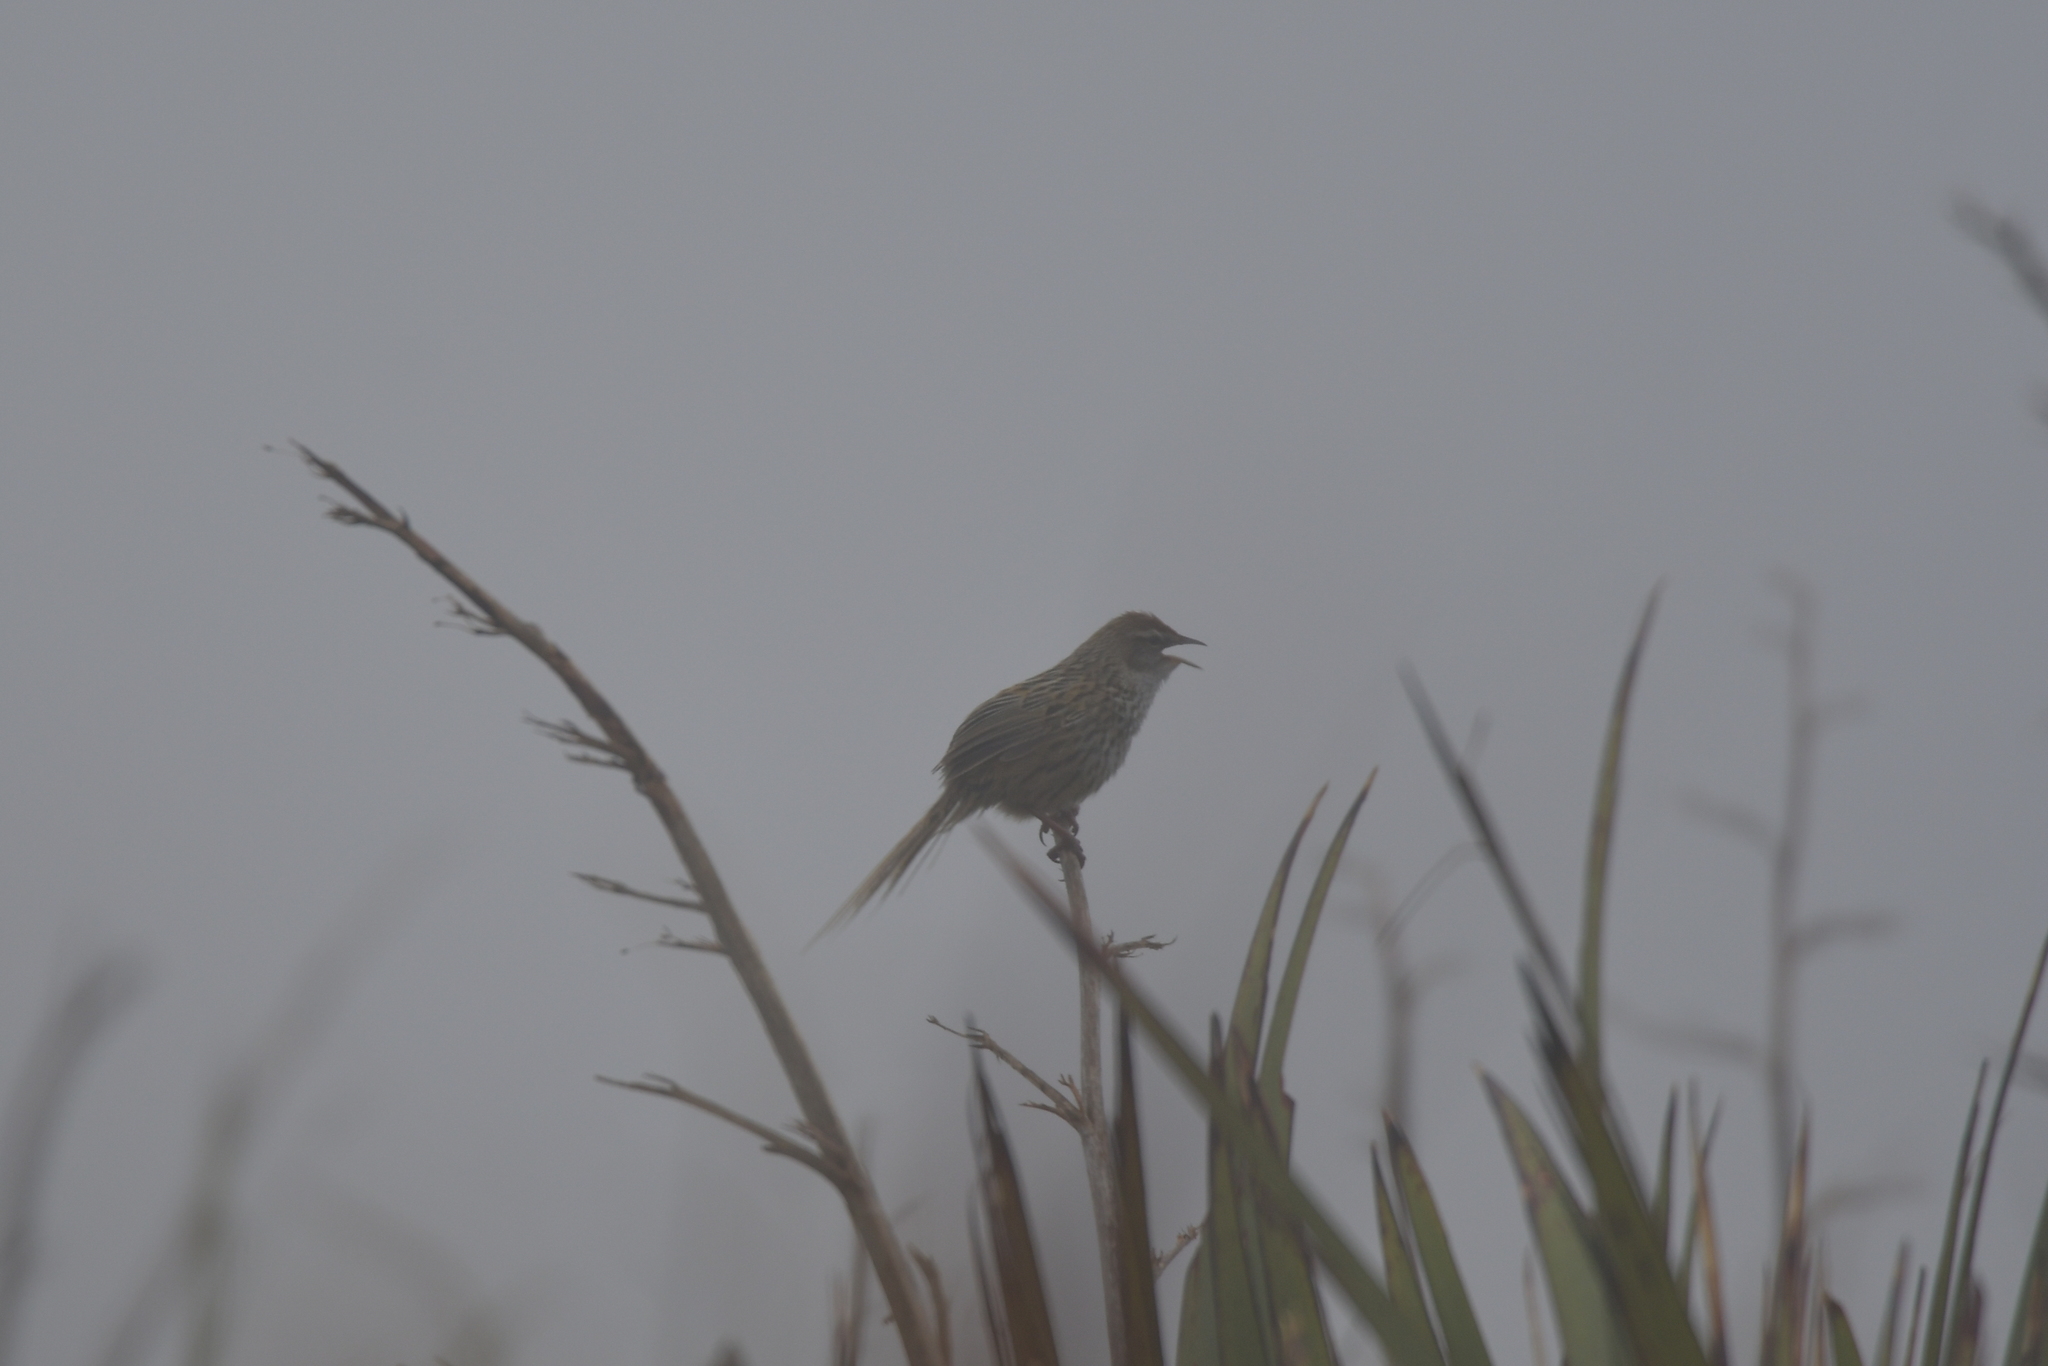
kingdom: Animalia
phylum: Chordata
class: Aves
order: Passeriformes
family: Locustellidae
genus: Poodytes
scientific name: Poodytes punctatus
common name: New zealand fernbird
